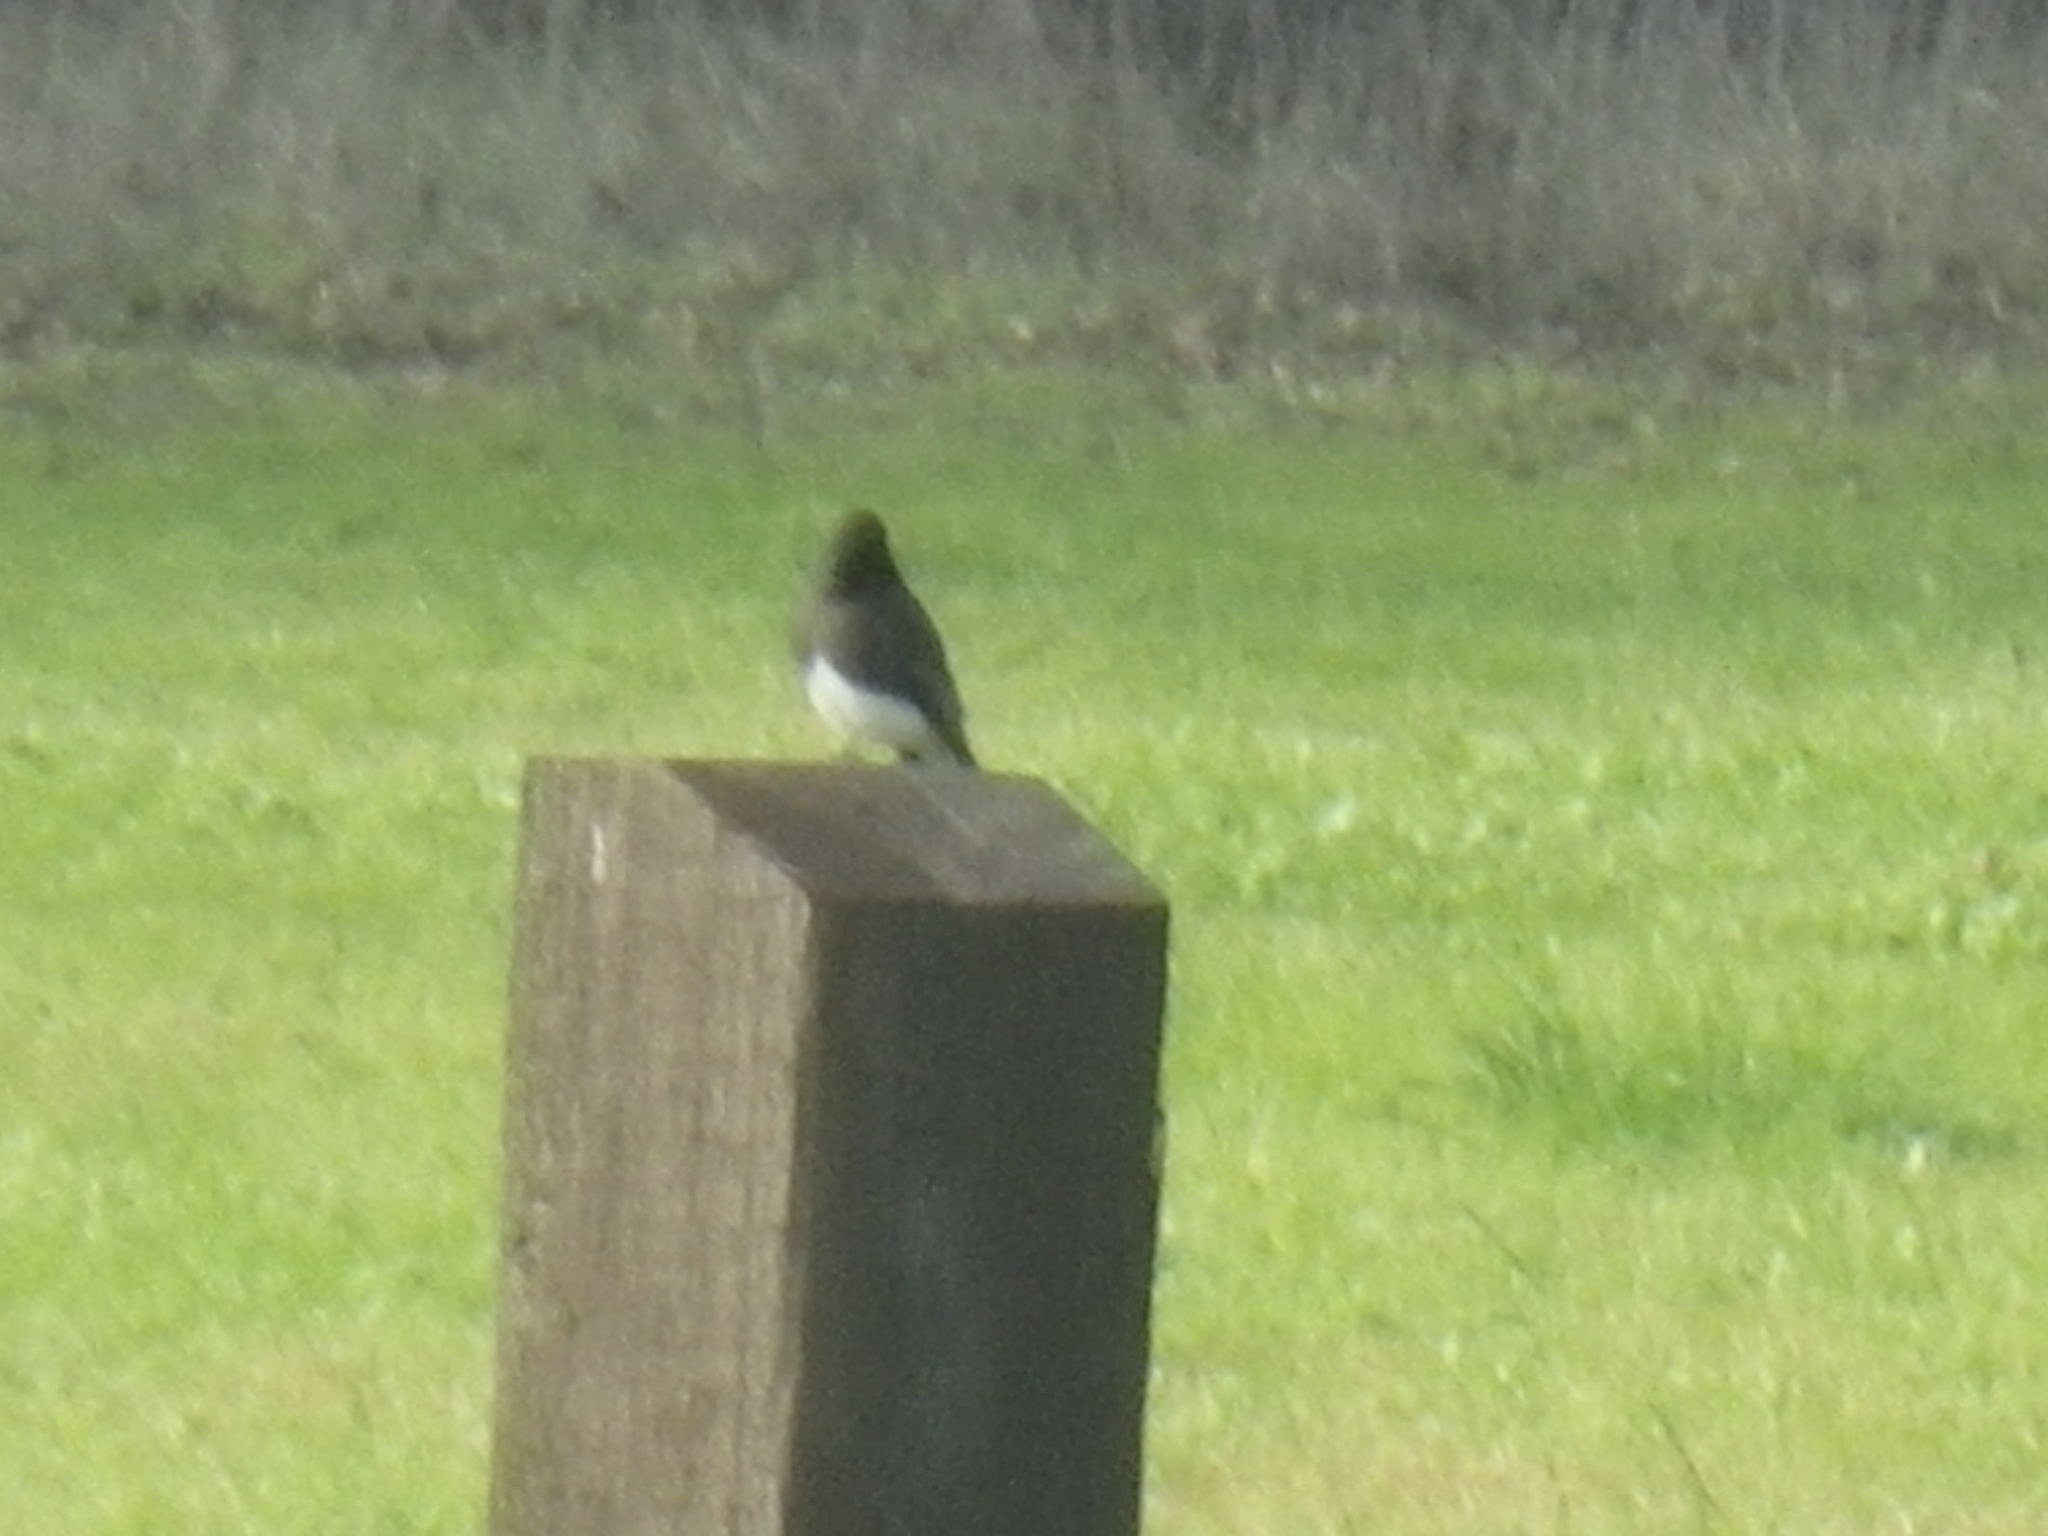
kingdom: Animalia
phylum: Chordata
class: Aves
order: Passeriformes
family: Tyrannidae
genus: Sayornis
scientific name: Sayornis nigricans
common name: Black phoebe
